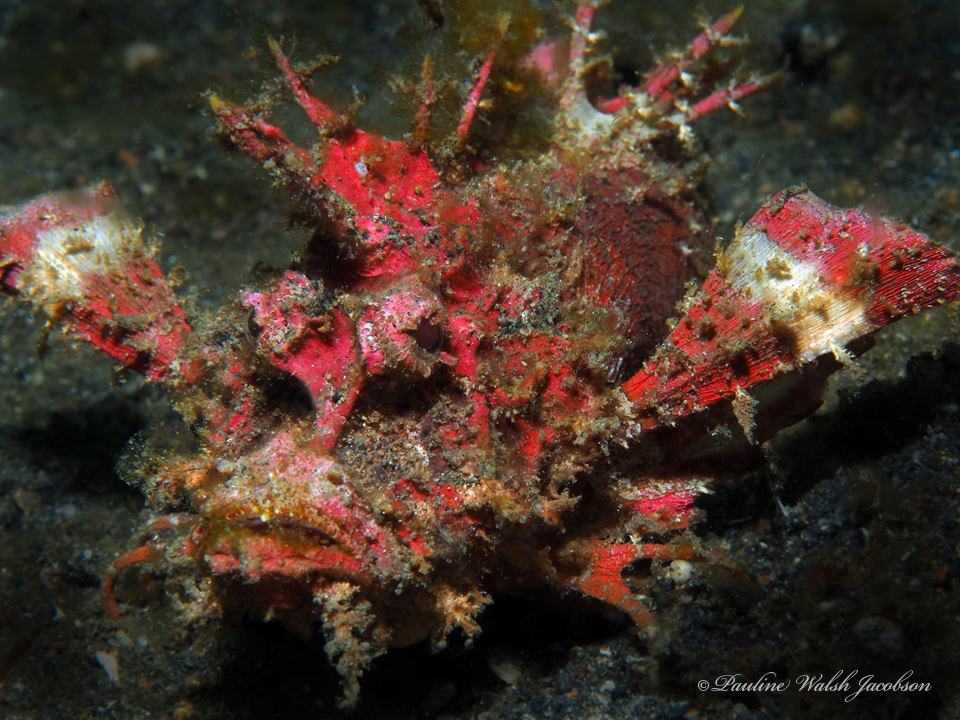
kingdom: Animalia
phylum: Chordata
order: Scorpaeniformes
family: Synanceiidae
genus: Inimicus
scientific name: Inimicus didactylus
